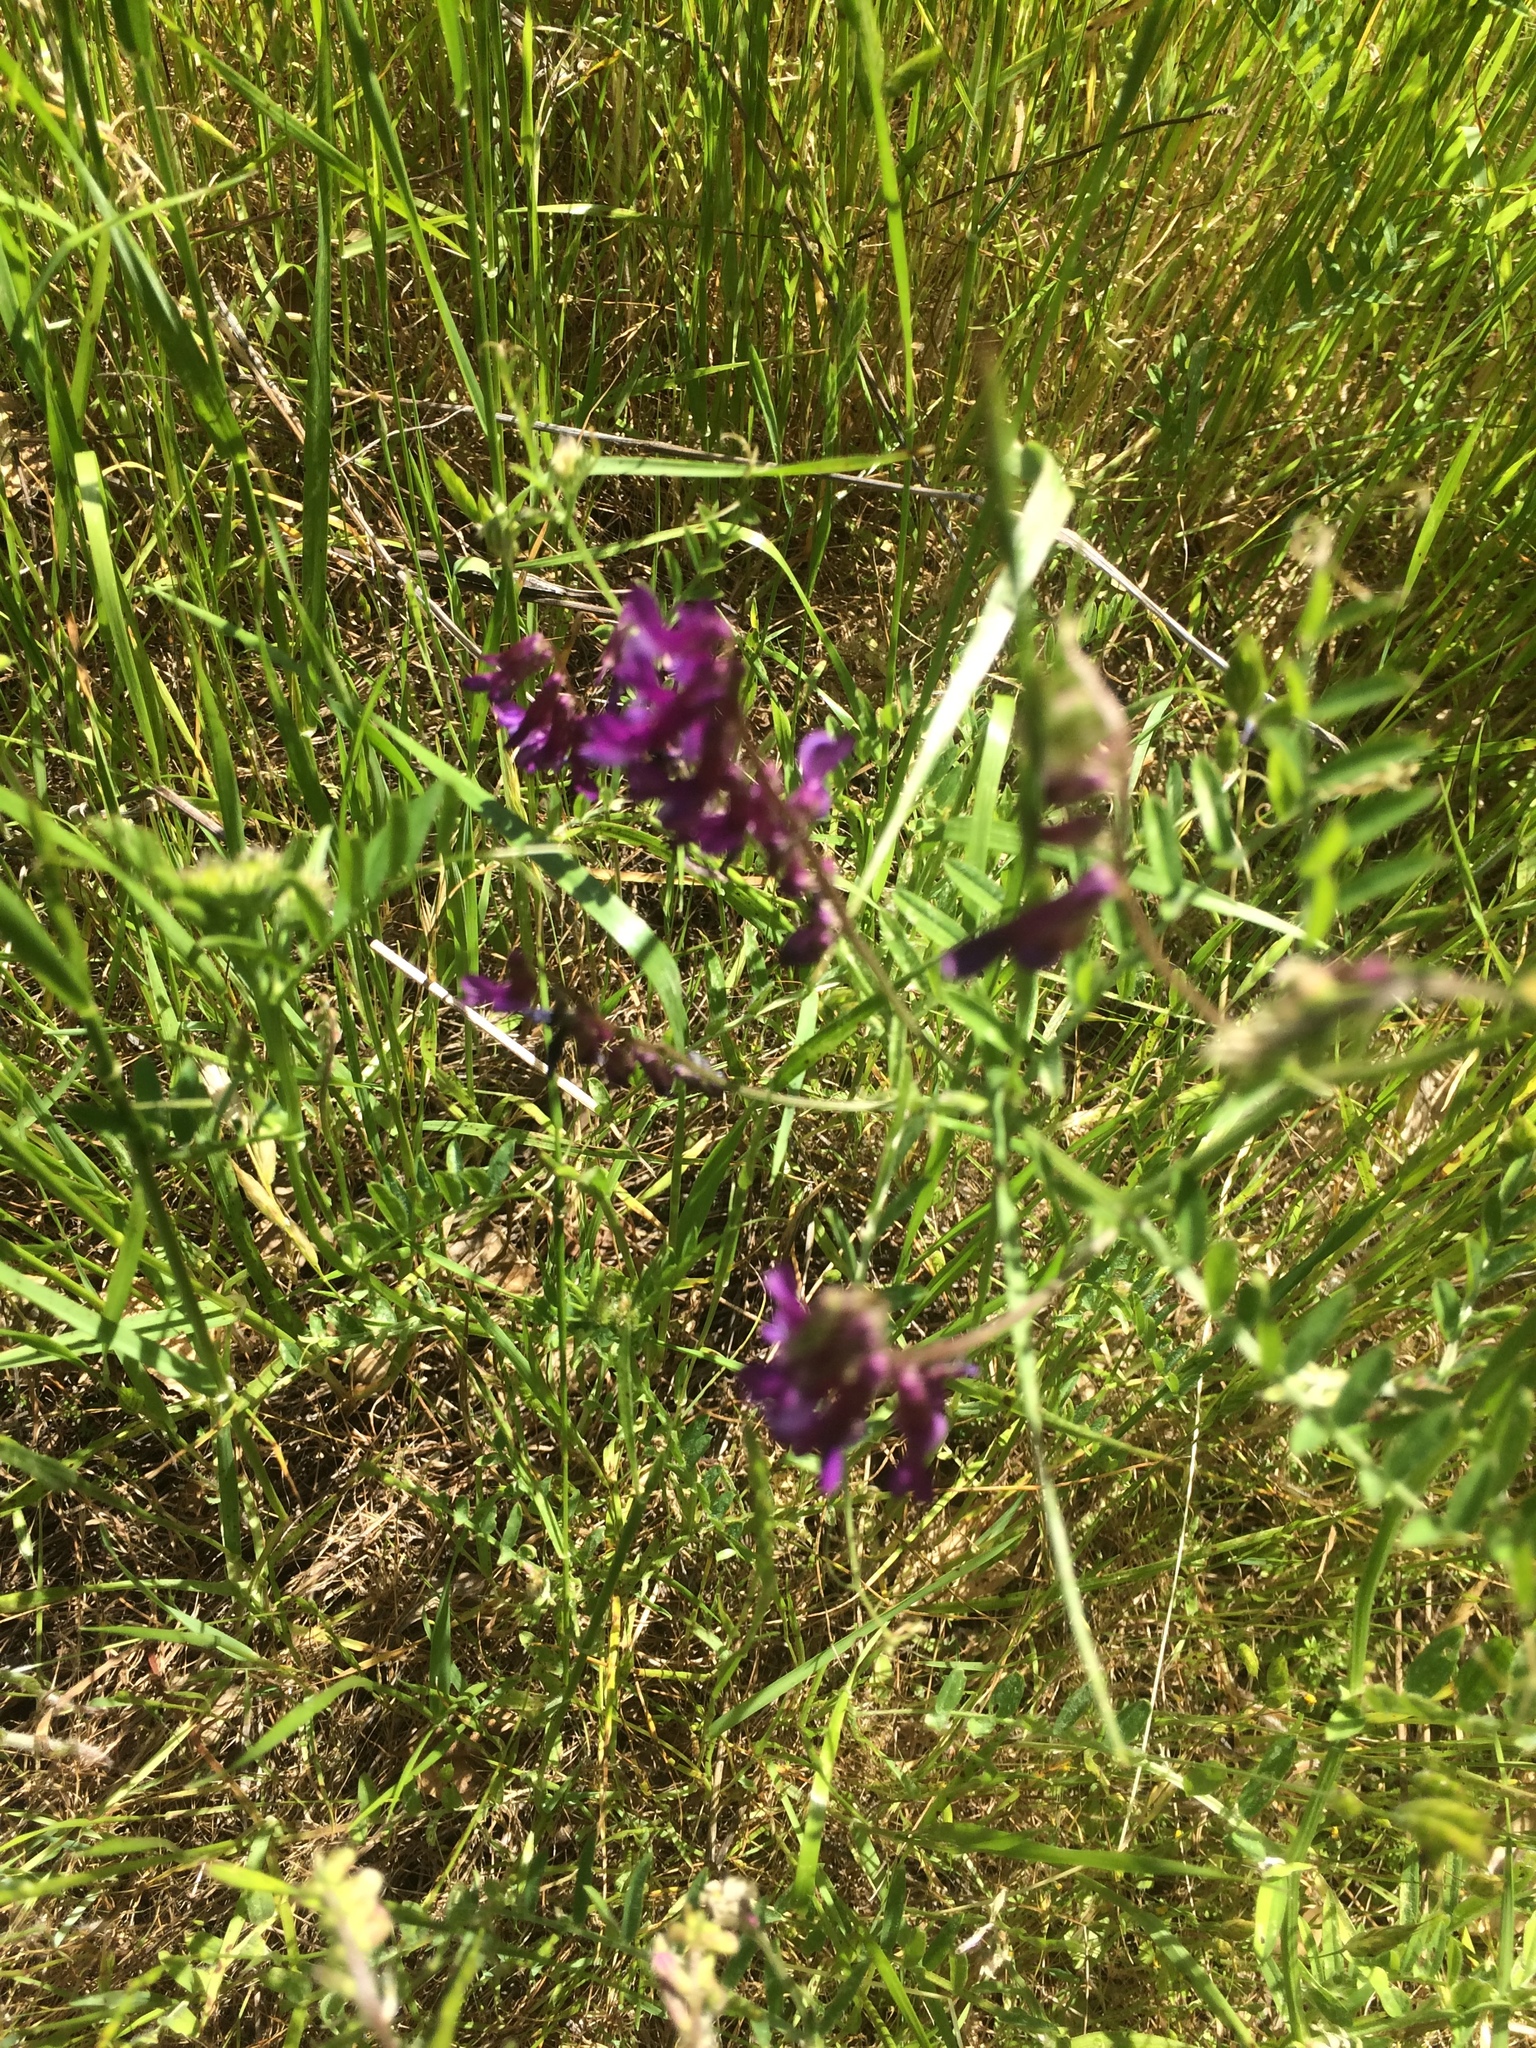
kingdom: Plantae
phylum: Tracheophyta
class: Magnoliopsida
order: Fabales
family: Fabaceae
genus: Vicia
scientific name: Vicia villosa
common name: Fodder vetch
